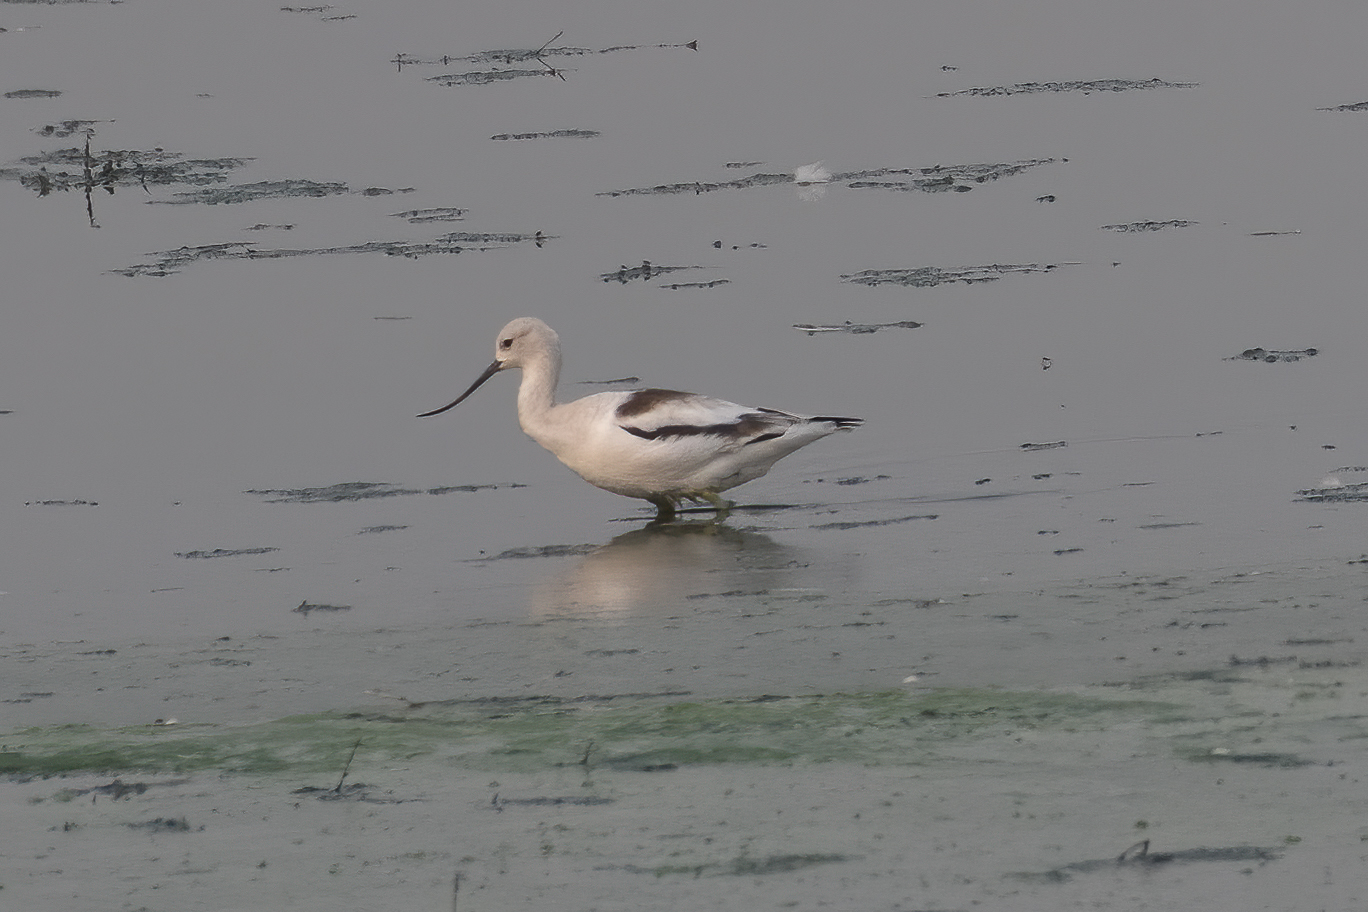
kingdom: Animalia
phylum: Chordata
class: Aves
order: Charadriiformes
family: Recurvirostridae
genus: Recurvirostra
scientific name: Recurvirostra americana
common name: American avocet
